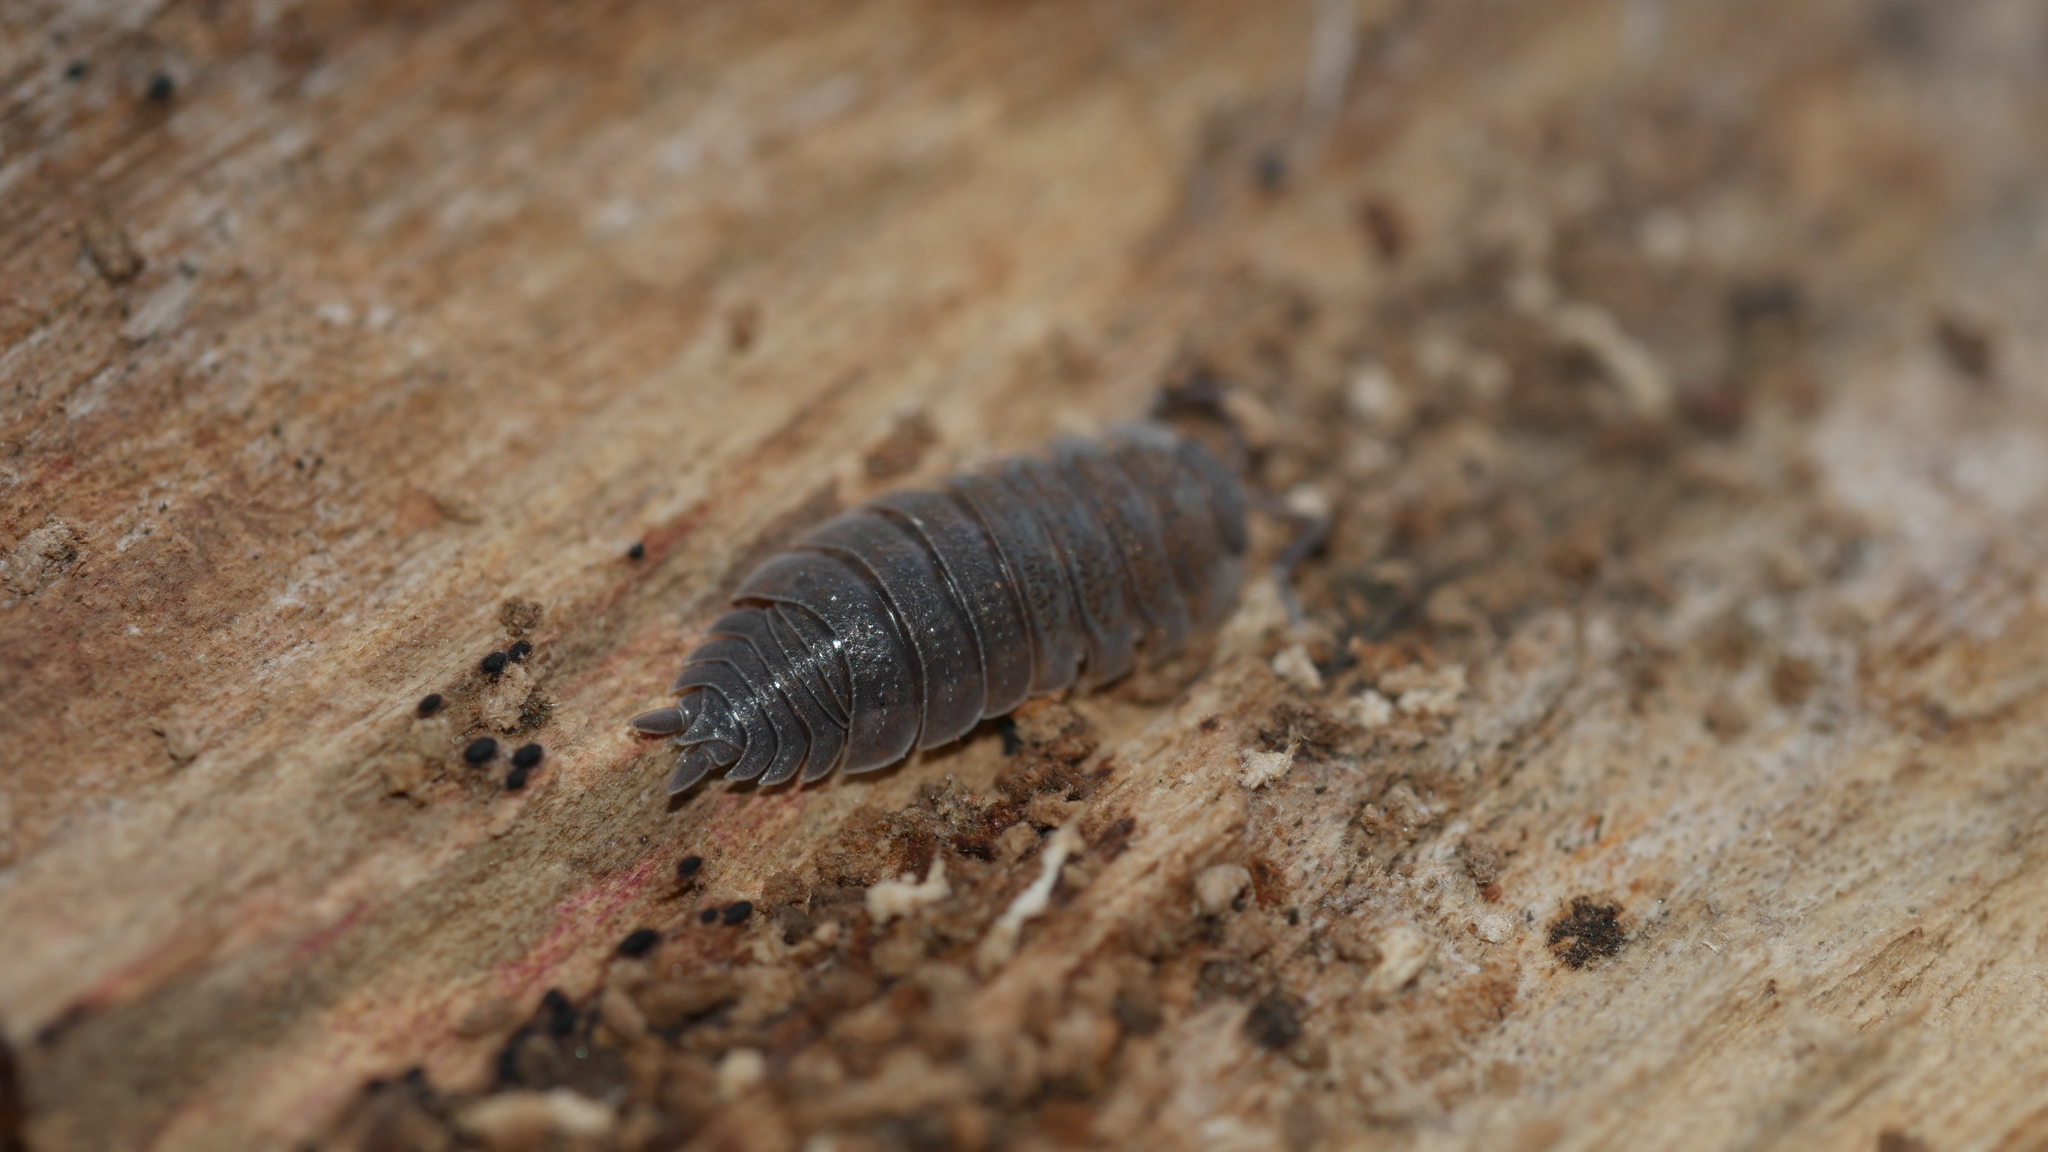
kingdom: Animalia
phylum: Arthropoda
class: Malacostraca
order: Isopoda
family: Porcellionidae
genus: Porcellio
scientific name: Porcellio scaber
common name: Common rough woodlouse
